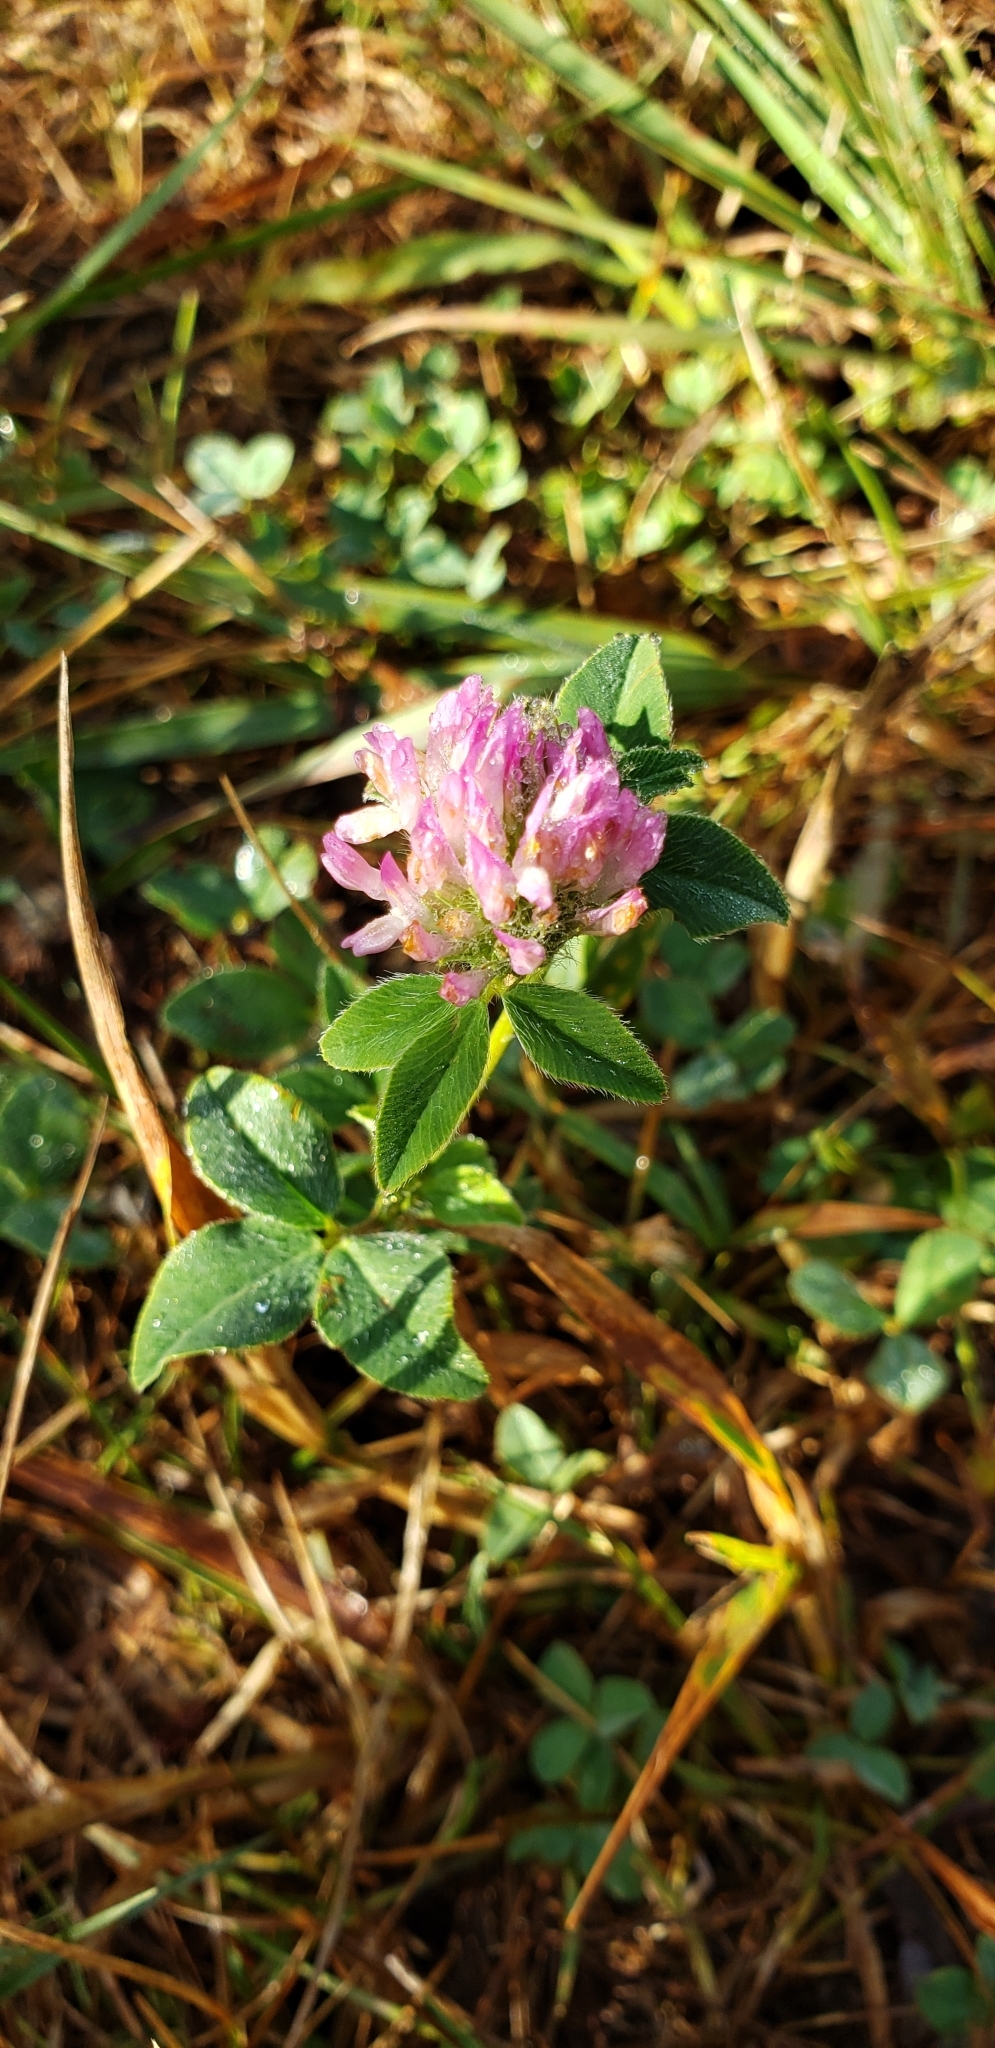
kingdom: Plantae
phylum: Tracheophyta
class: Magnoliopsida
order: Fabales
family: Fabaceae
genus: Trifolium
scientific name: Trifolium pratense
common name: Red clover
